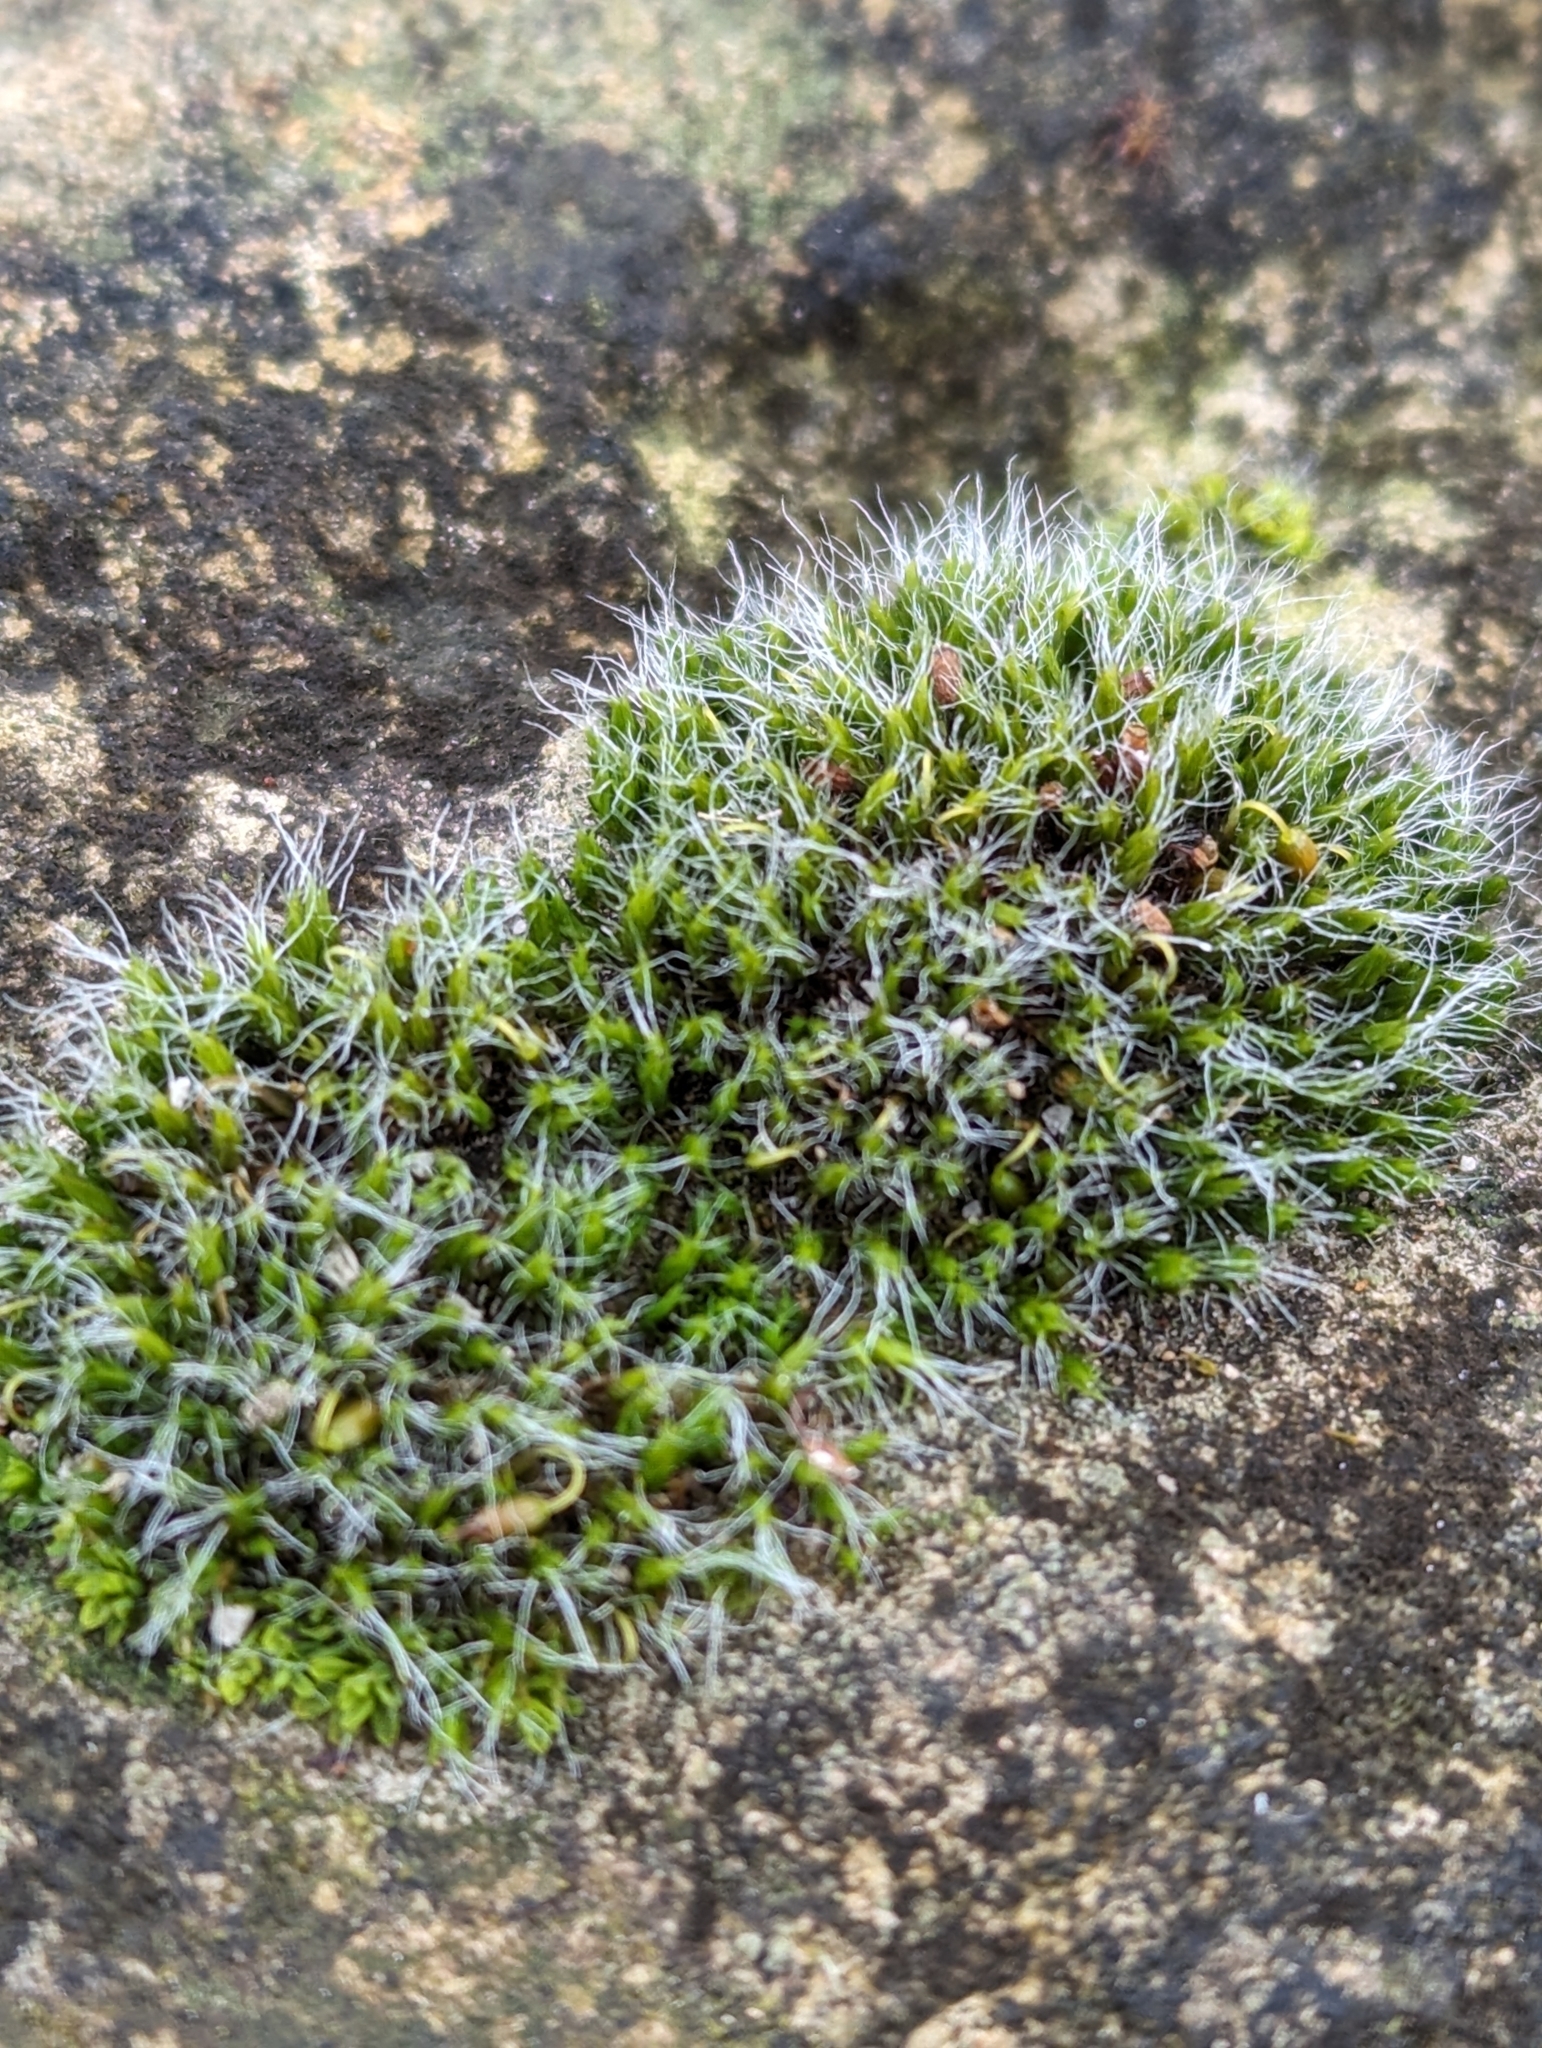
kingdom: Plantae
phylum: Bryophyta
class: Bryopsida
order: Grimmiales
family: Grimmiaceae
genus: Grimmia
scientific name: Grimmia pulvinata
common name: Grey-cushioned grimmia
